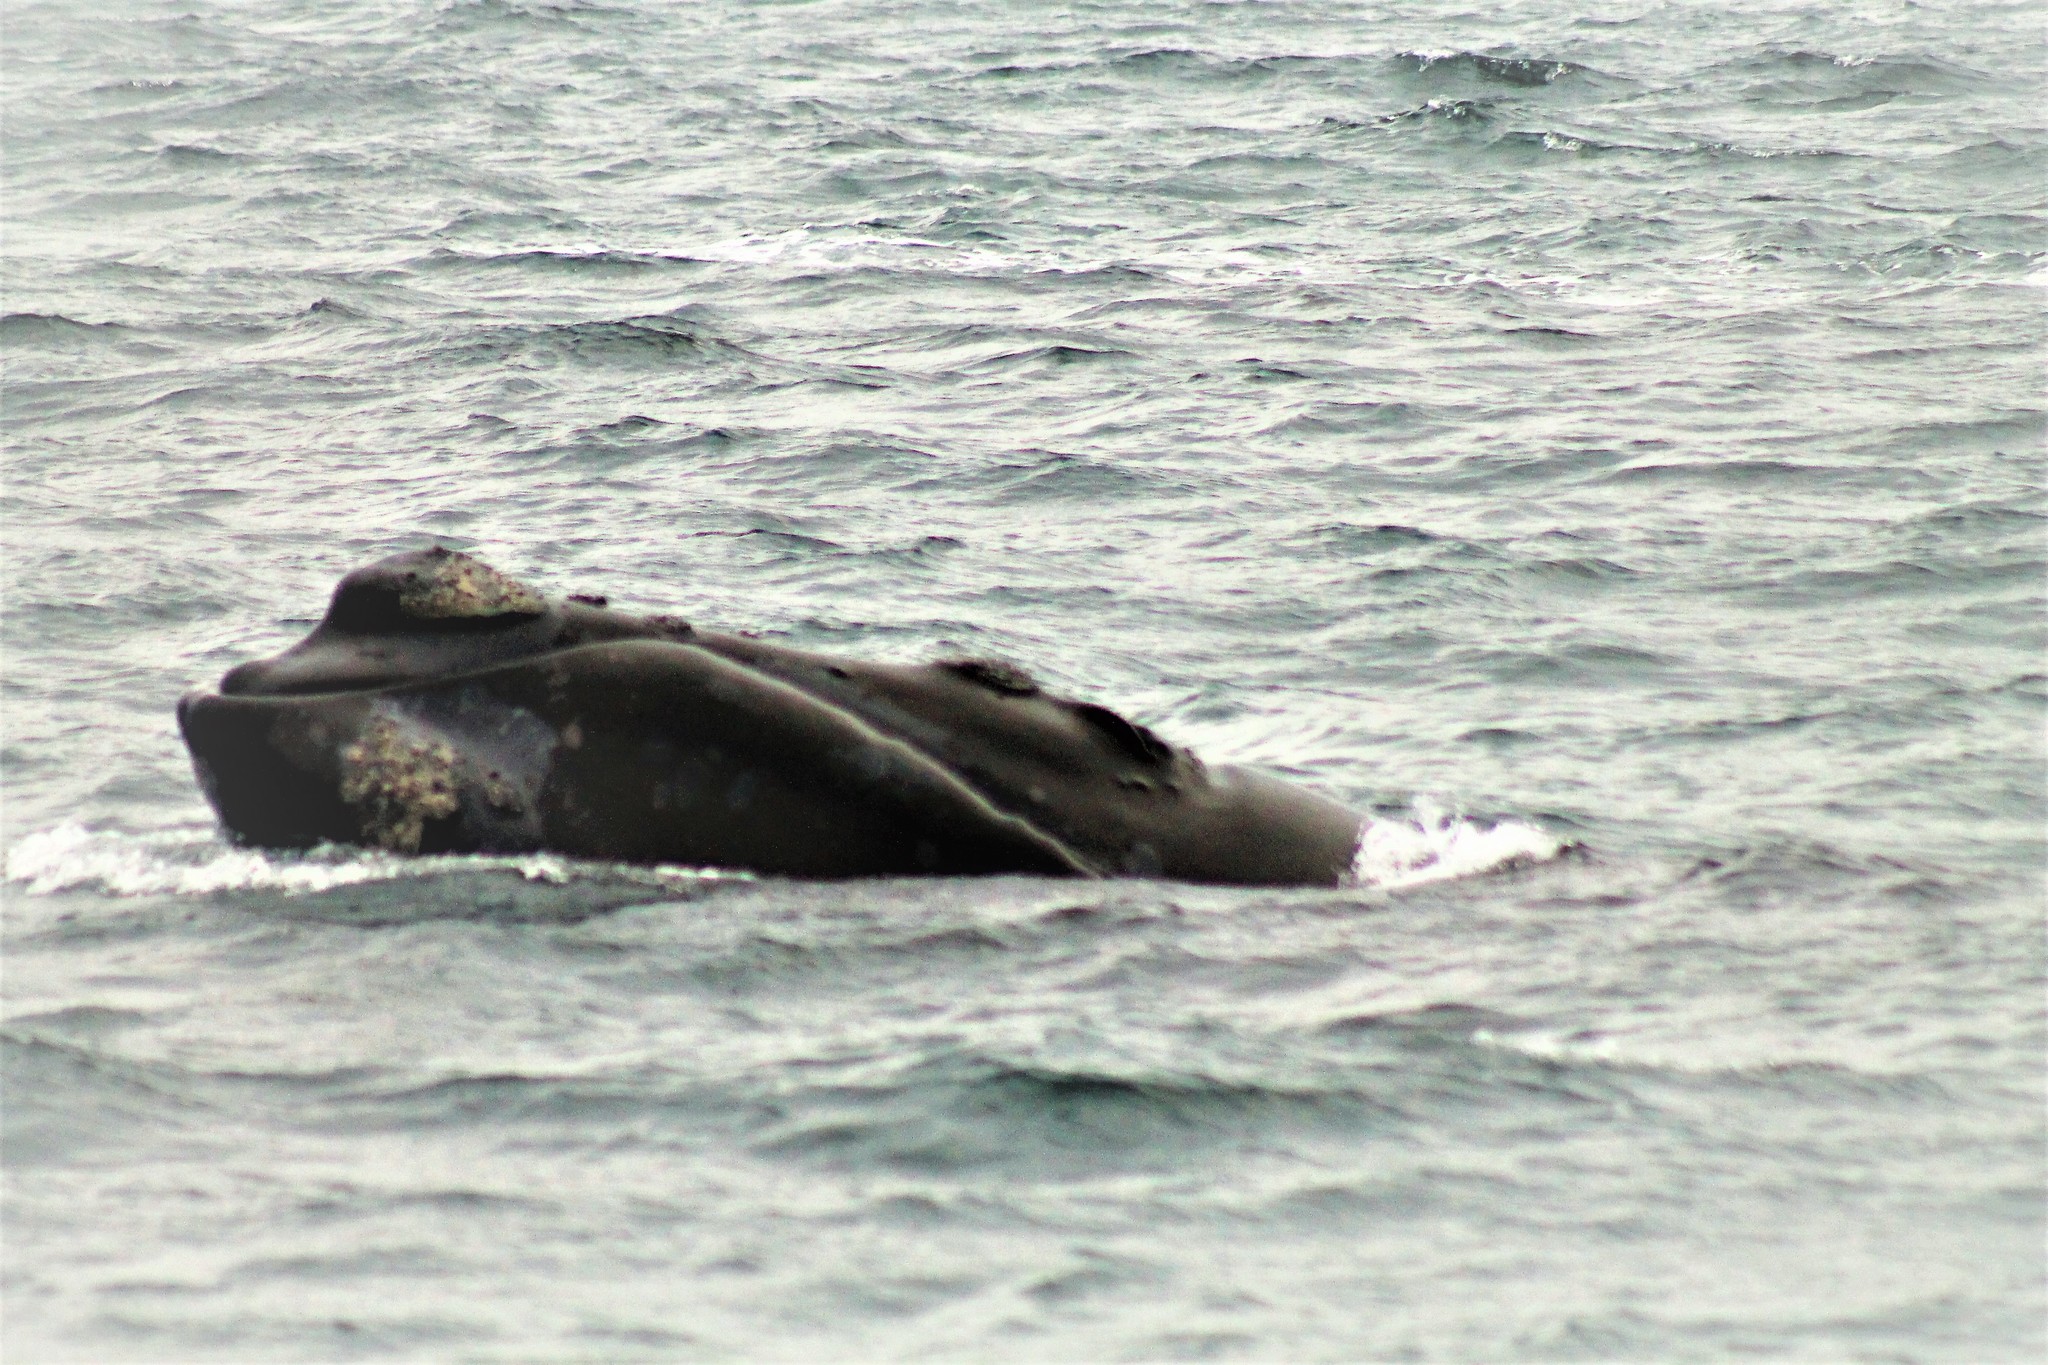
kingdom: Animalia
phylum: Chordata
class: Mammalia
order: Cetacea
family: Balaenidae
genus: Eubalaena
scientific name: Eubalaena australis
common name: Southern right whale
